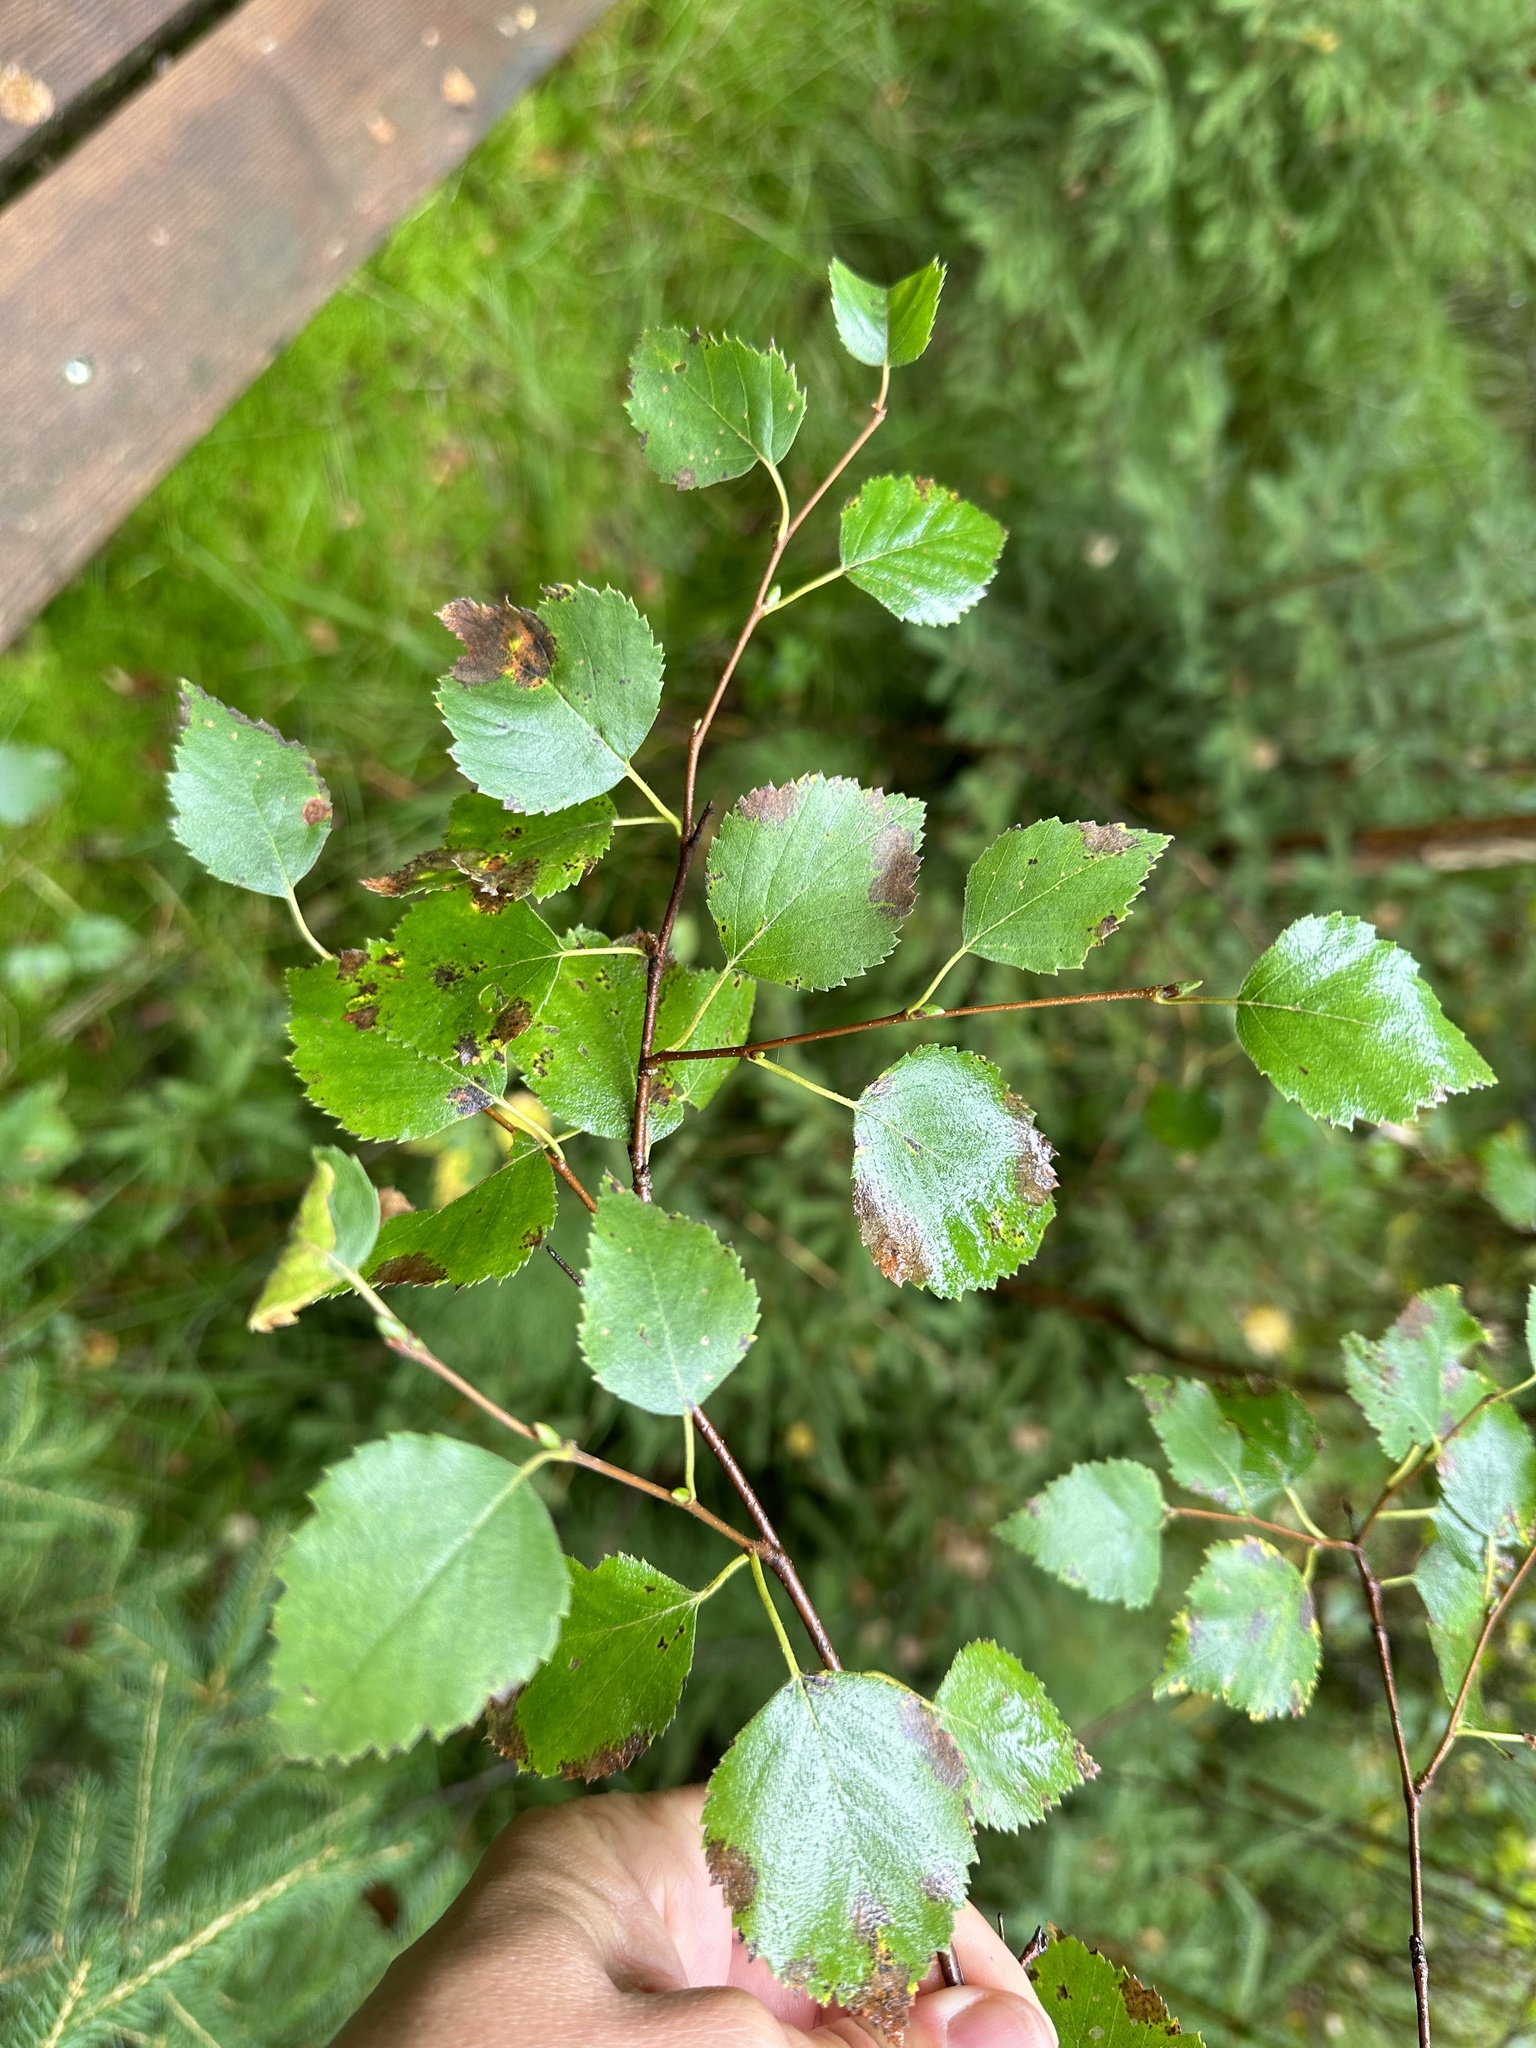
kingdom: Plantae
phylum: Tracheophyta
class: Magnoliopsida
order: Fagales
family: Betulaceae
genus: Betula
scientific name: Betula pubescens
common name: Downy birch
